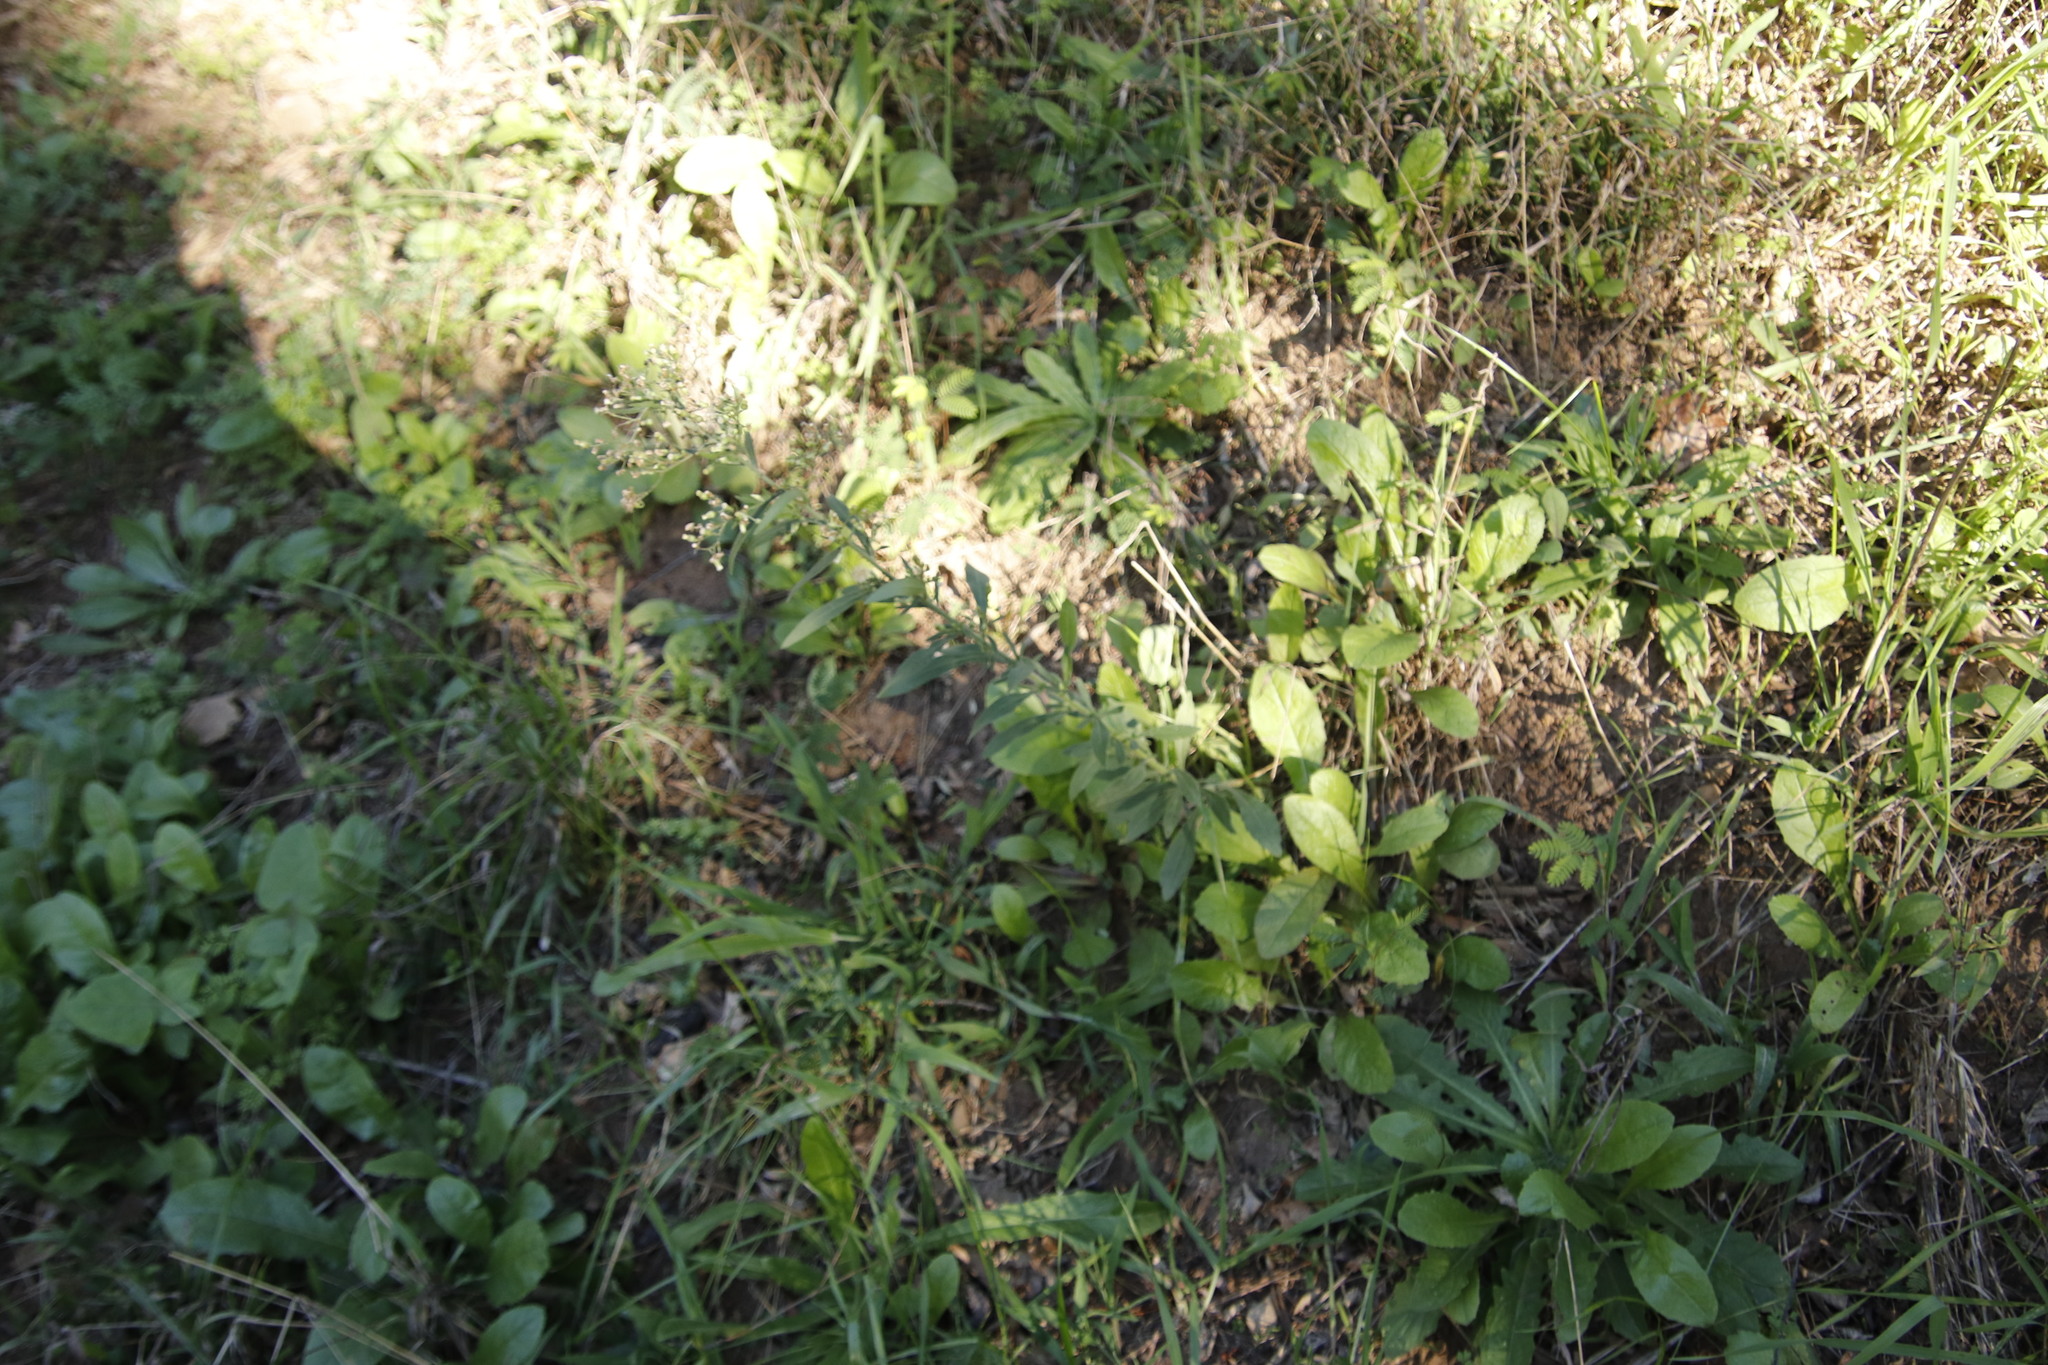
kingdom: Plantae
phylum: Tracheophyta
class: Magnoliopsida
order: Asterales
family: Asteraceae
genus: Erigeron
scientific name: Erigeron sumatrensis
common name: Daisy
